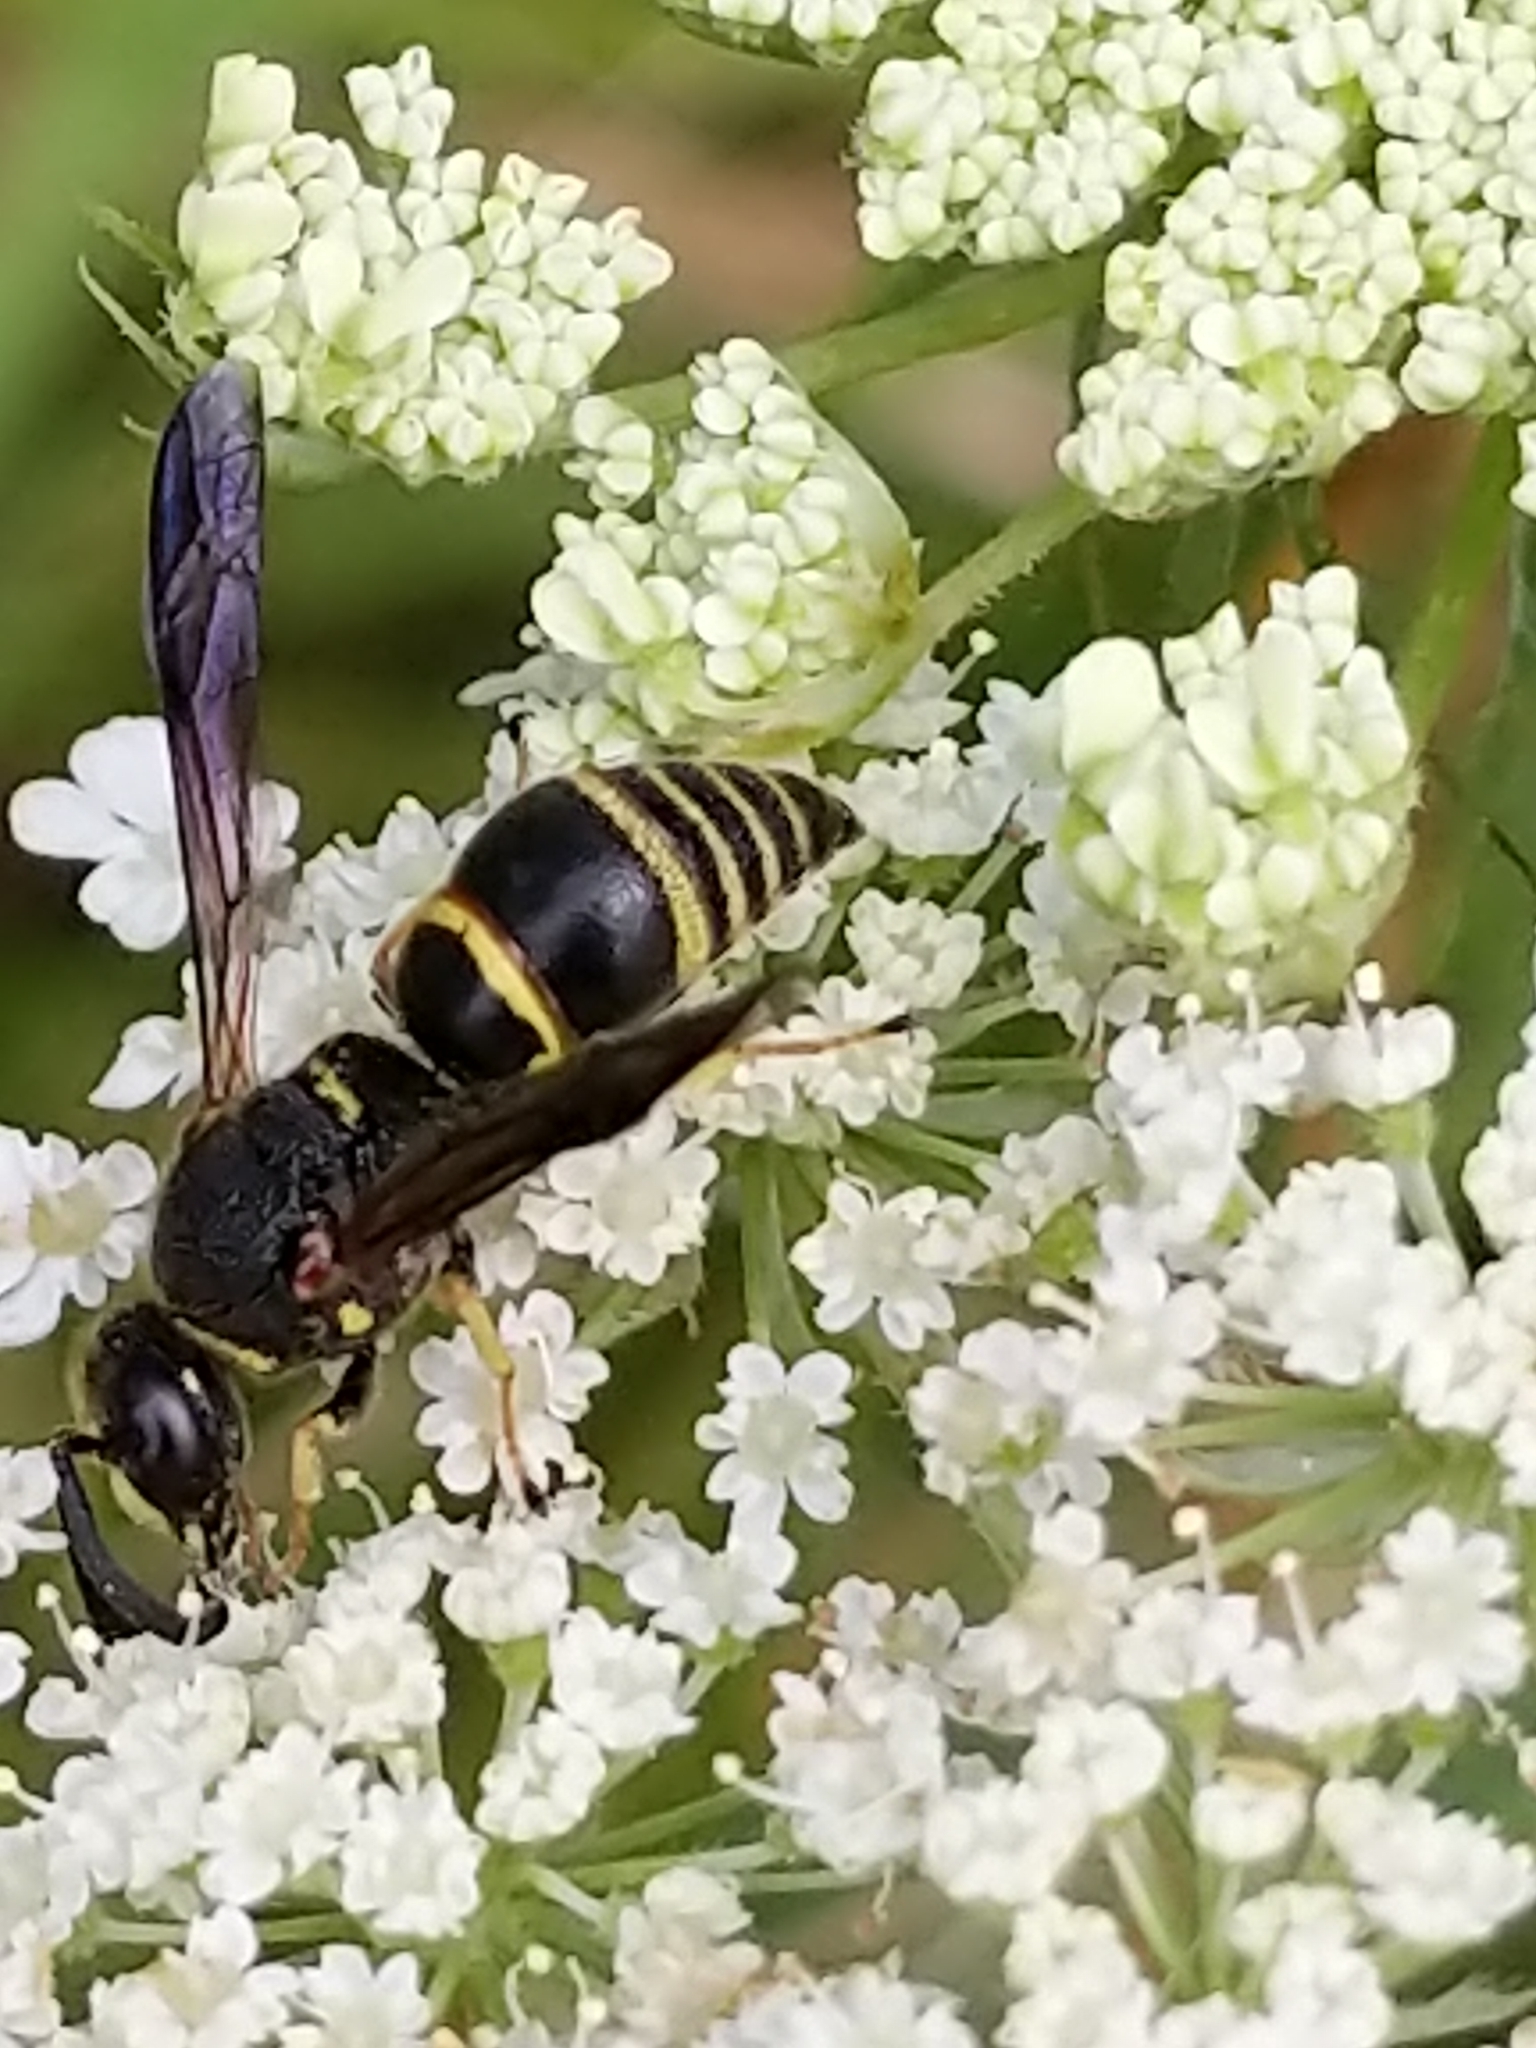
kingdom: Animalia
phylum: Arthropoda
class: Insecta
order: Hymenoptera
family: Eumenidae
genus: Euodynerus
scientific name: Euodynerus foraminatus
